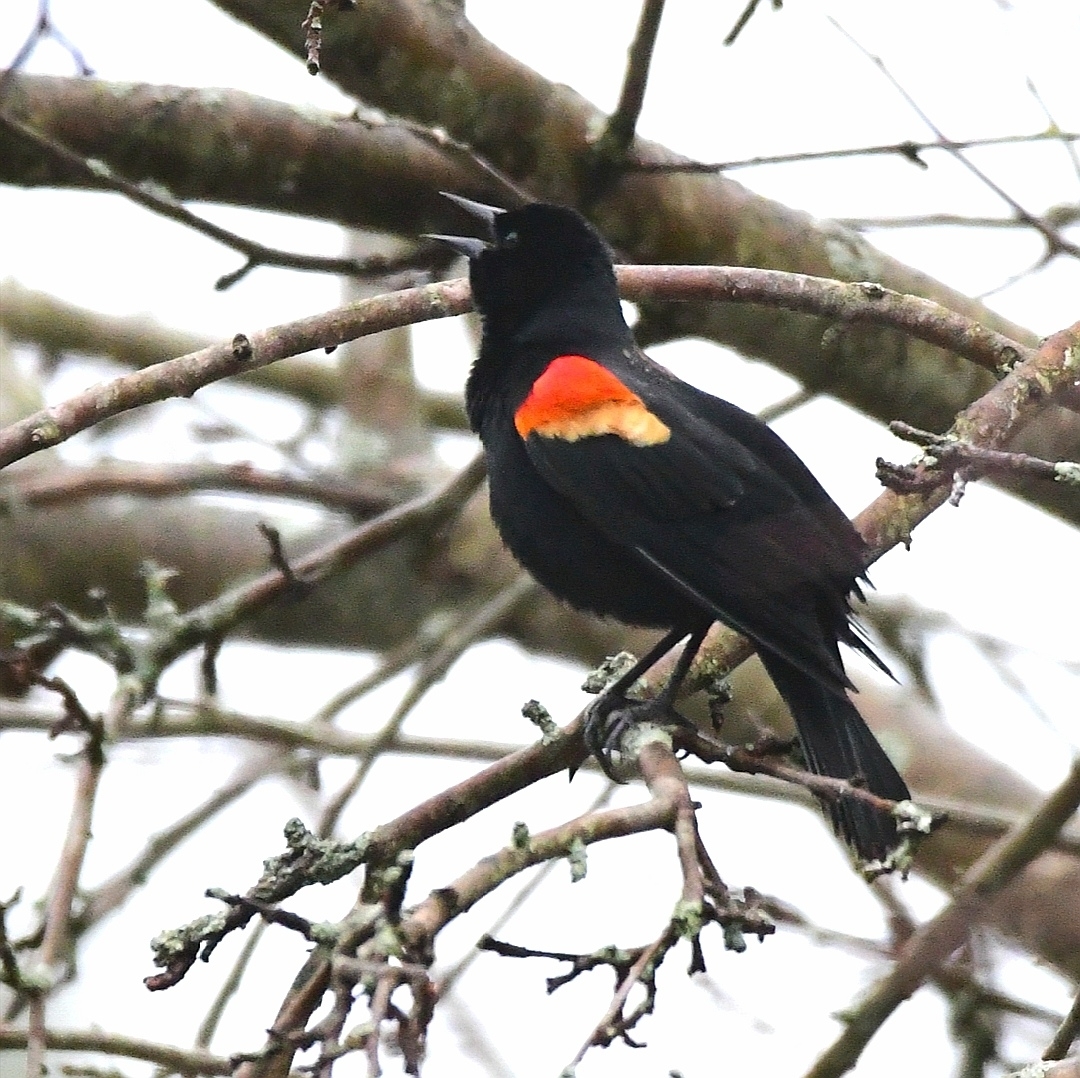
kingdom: Animalia
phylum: Chordata
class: Aves
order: Passeriformes
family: Icteridae
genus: Agelaius
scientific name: Agelaius phoeniceus
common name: Red-winged blackbird
